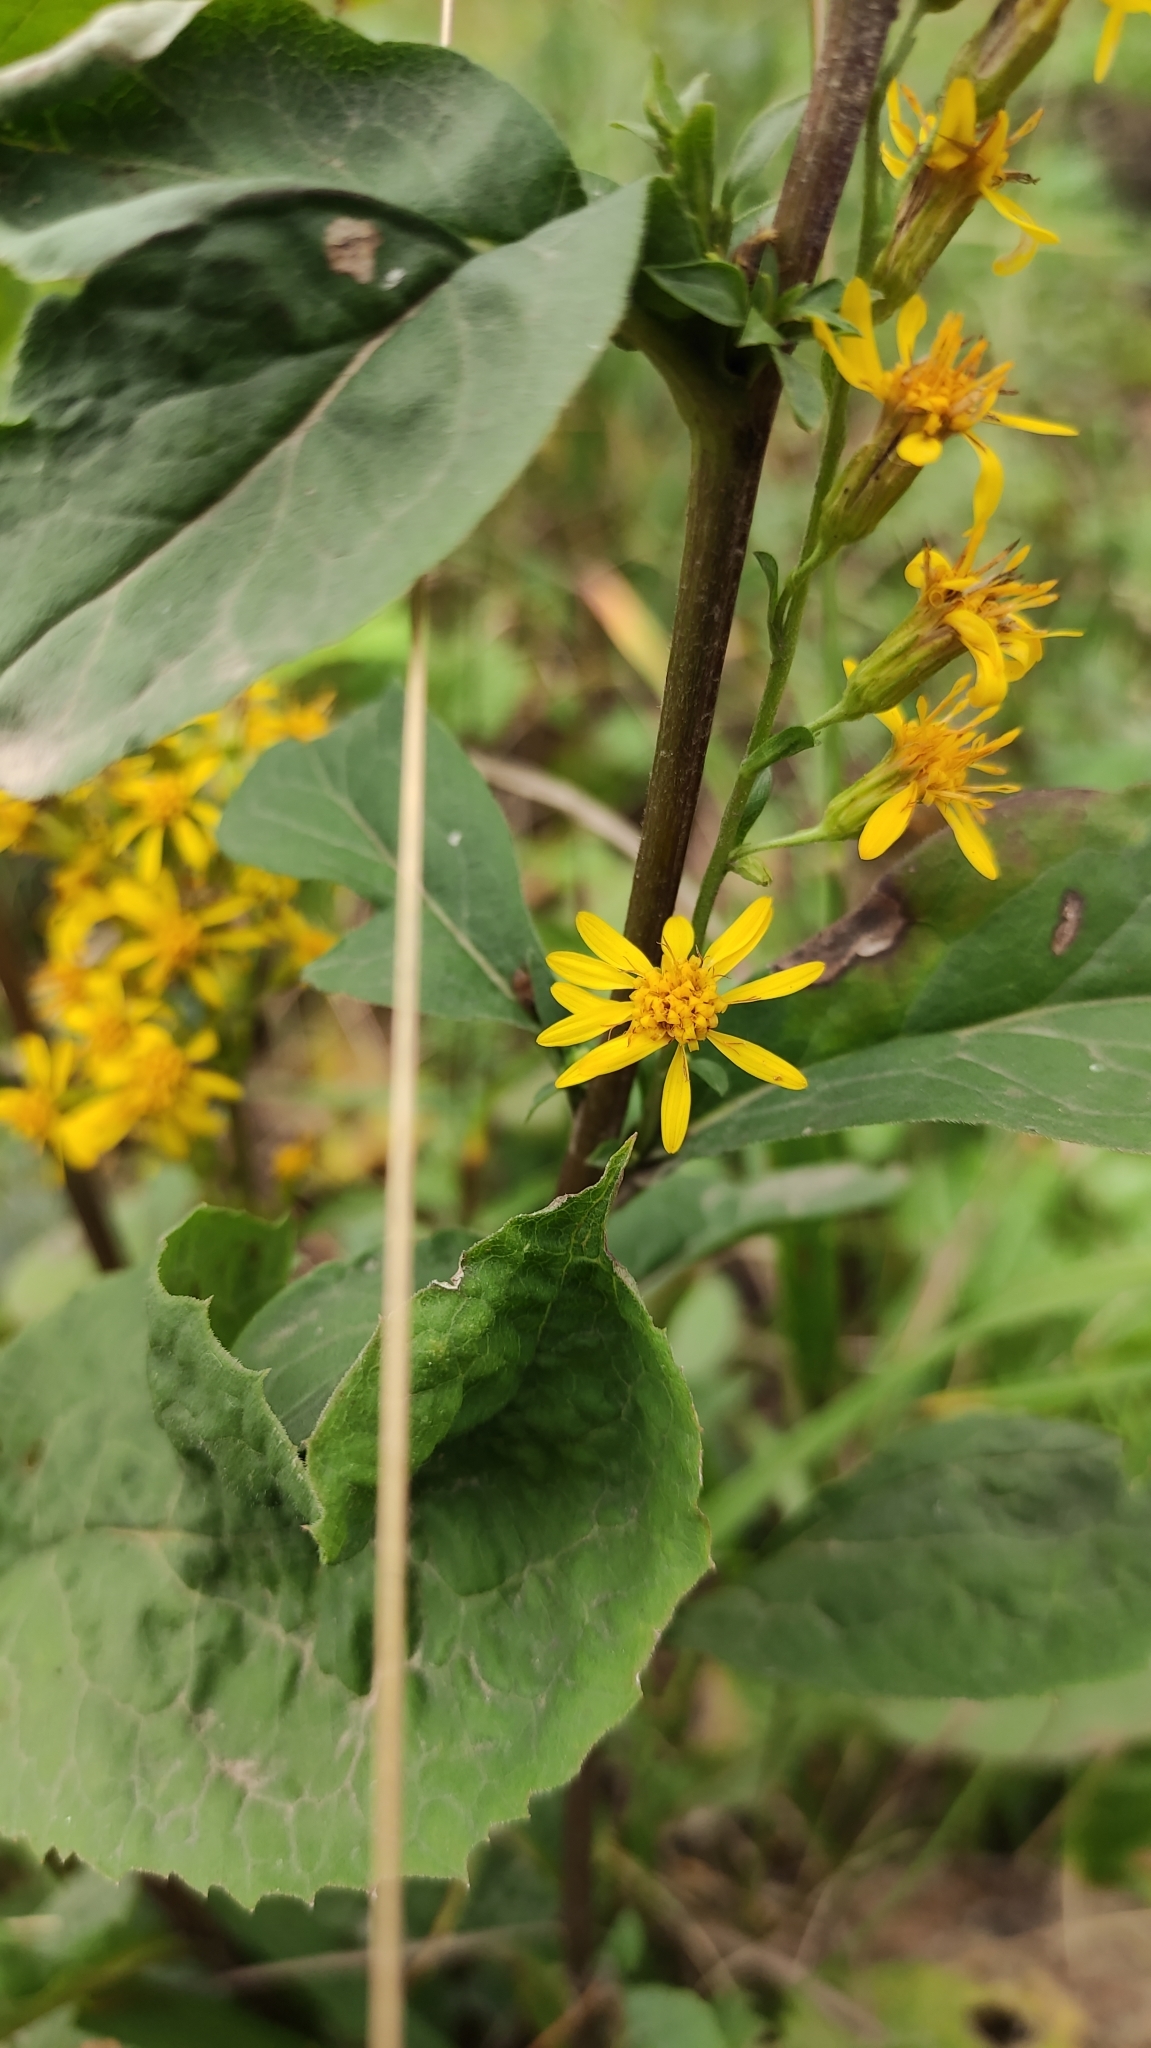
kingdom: Plantae
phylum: Tracheophyta
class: Magnoliopsida
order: Asterales
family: Asteraceae
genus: Solidago
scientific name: Solidago dahurica
